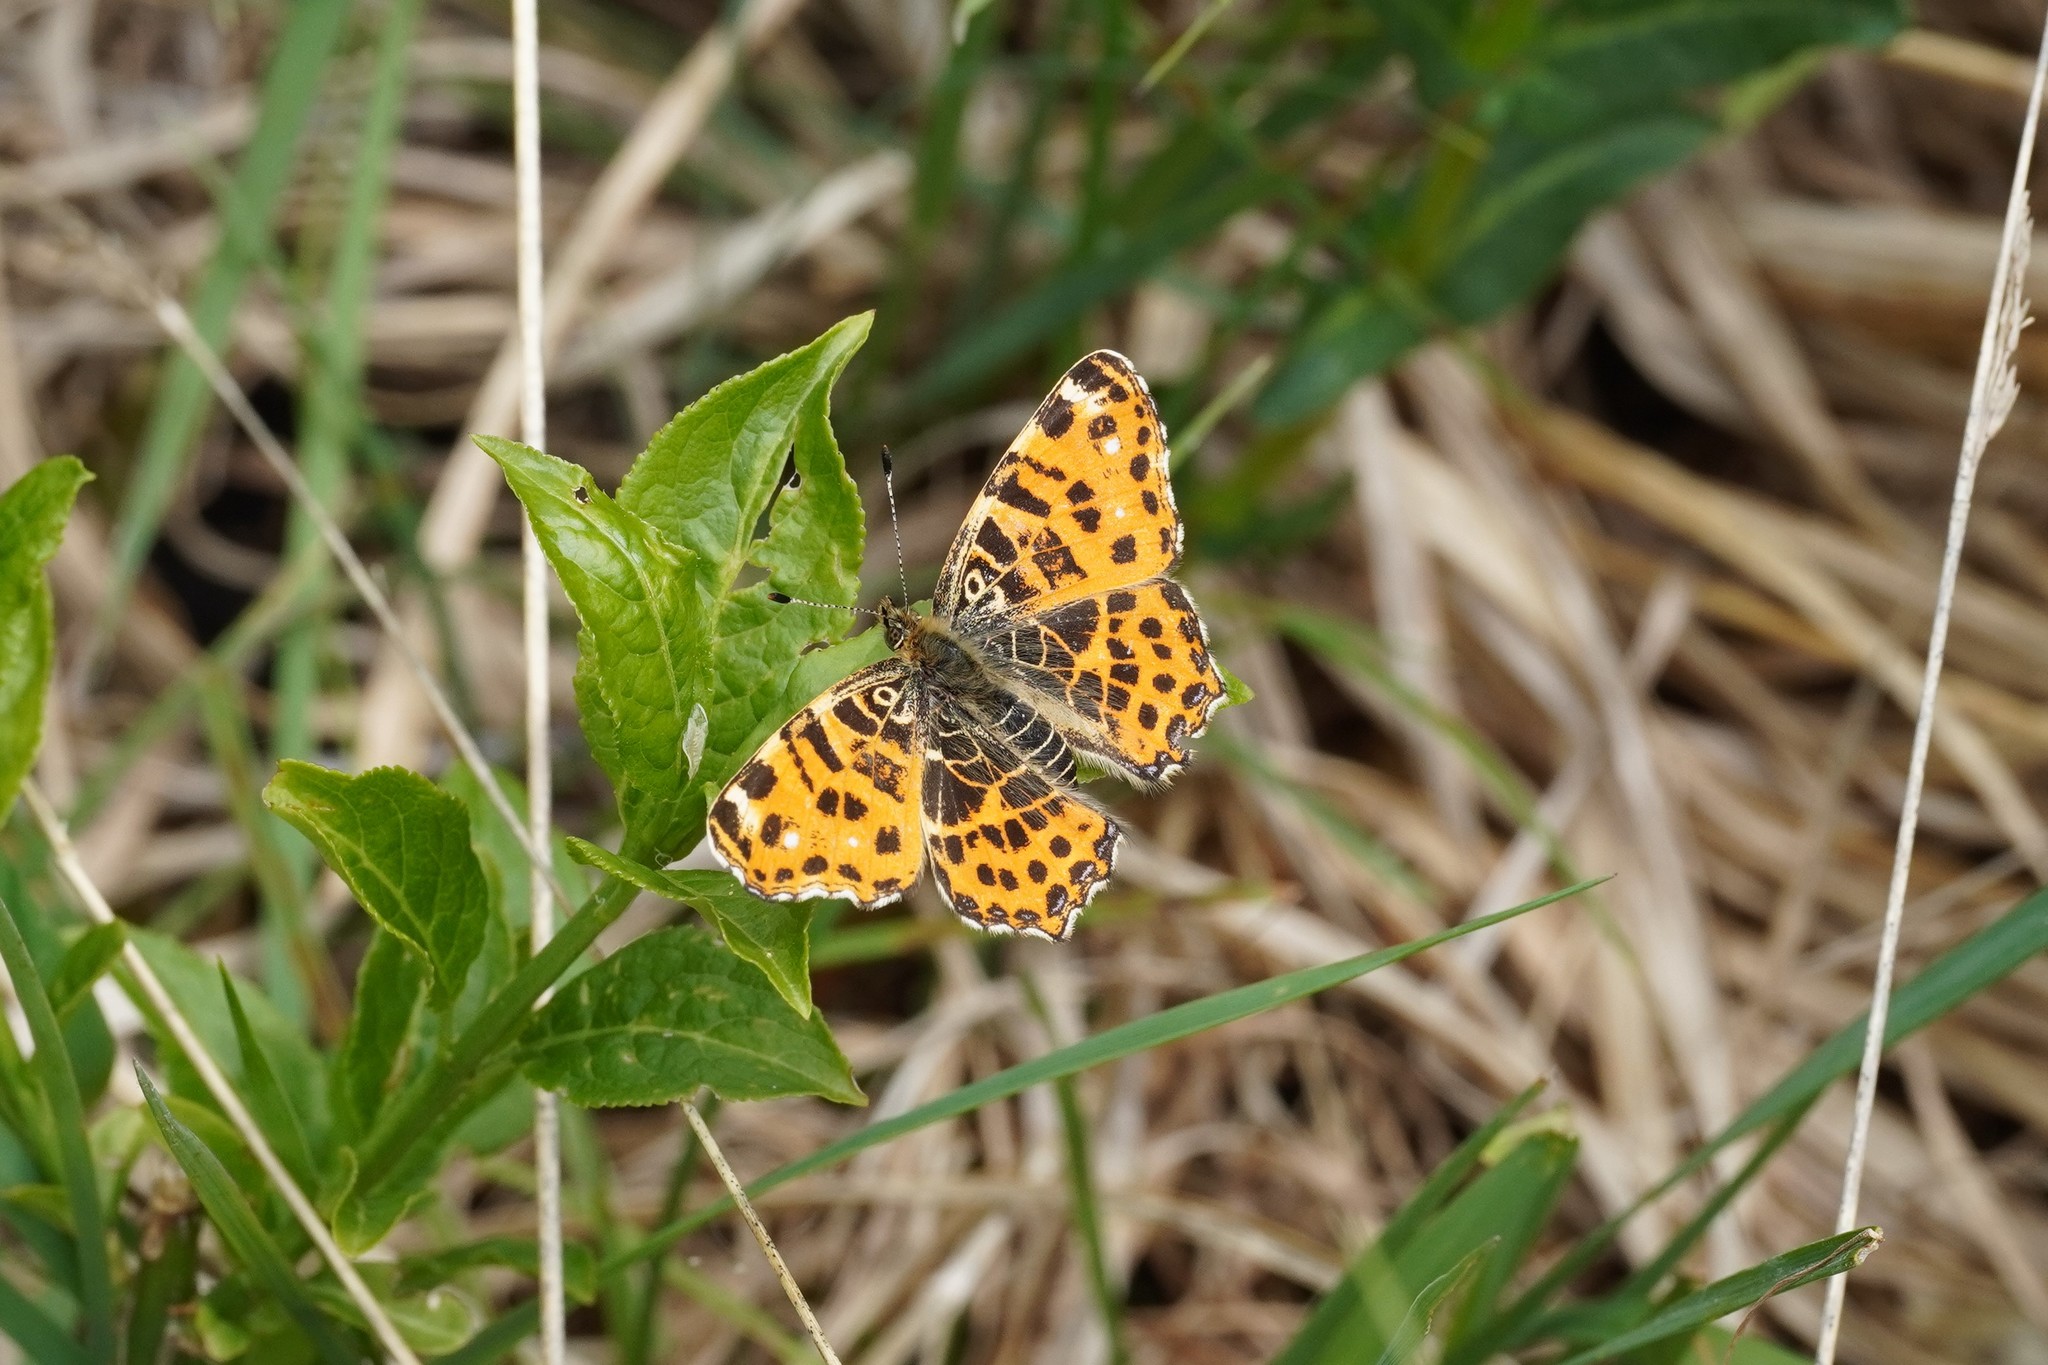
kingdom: Animalia
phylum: Arthropoda
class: Insecta
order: Lepidoptera
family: Nymphalidae
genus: Araschnia
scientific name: Araschnia levana
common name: Map butterfly
